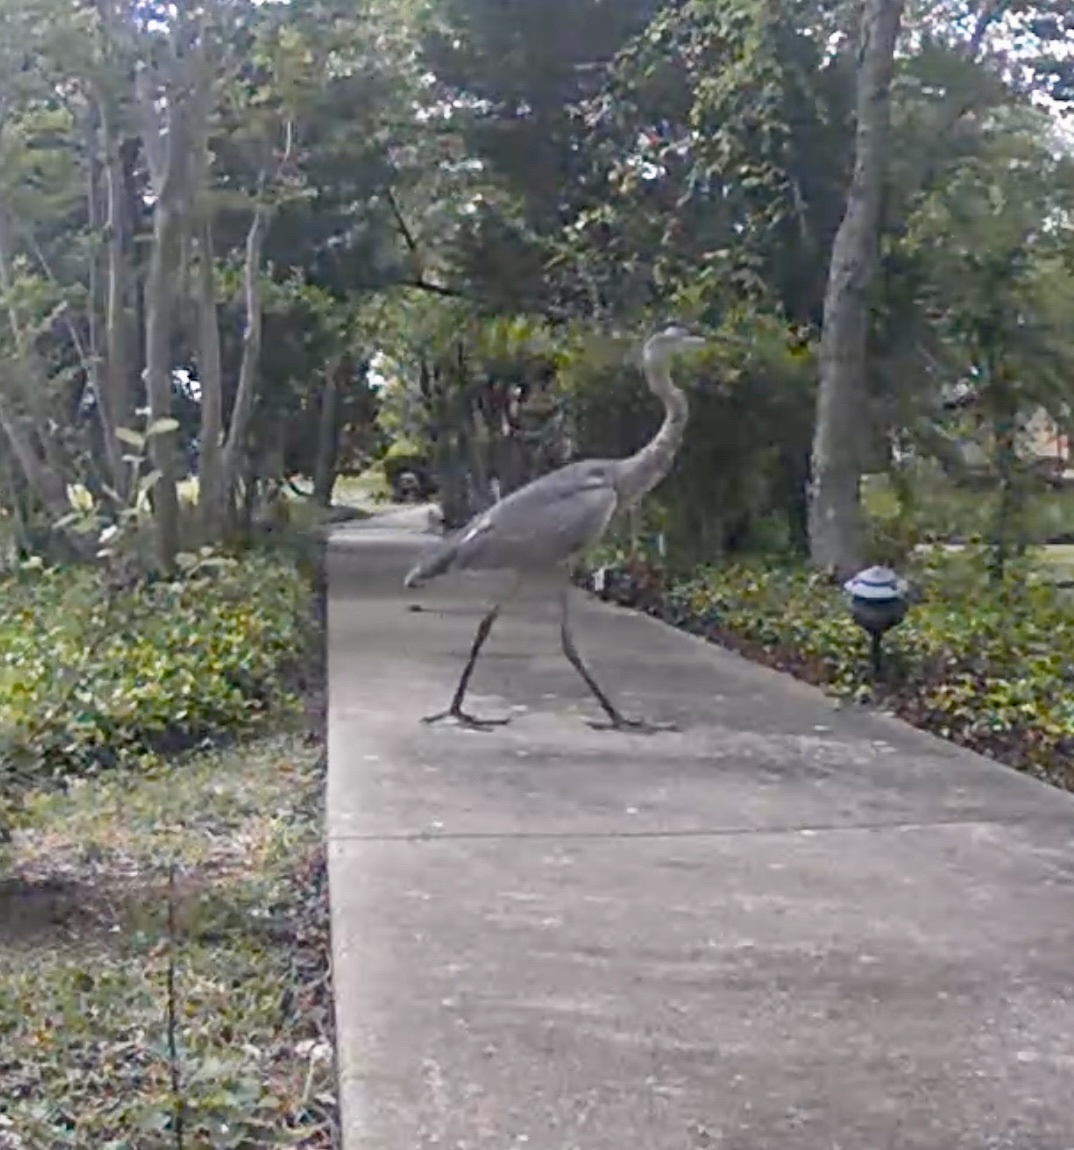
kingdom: Animalia
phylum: Chordata
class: Aves
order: Pelecaniformes
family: Ardeidae
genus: Ardea
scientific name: Ardea herodias
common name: Great blue heron
